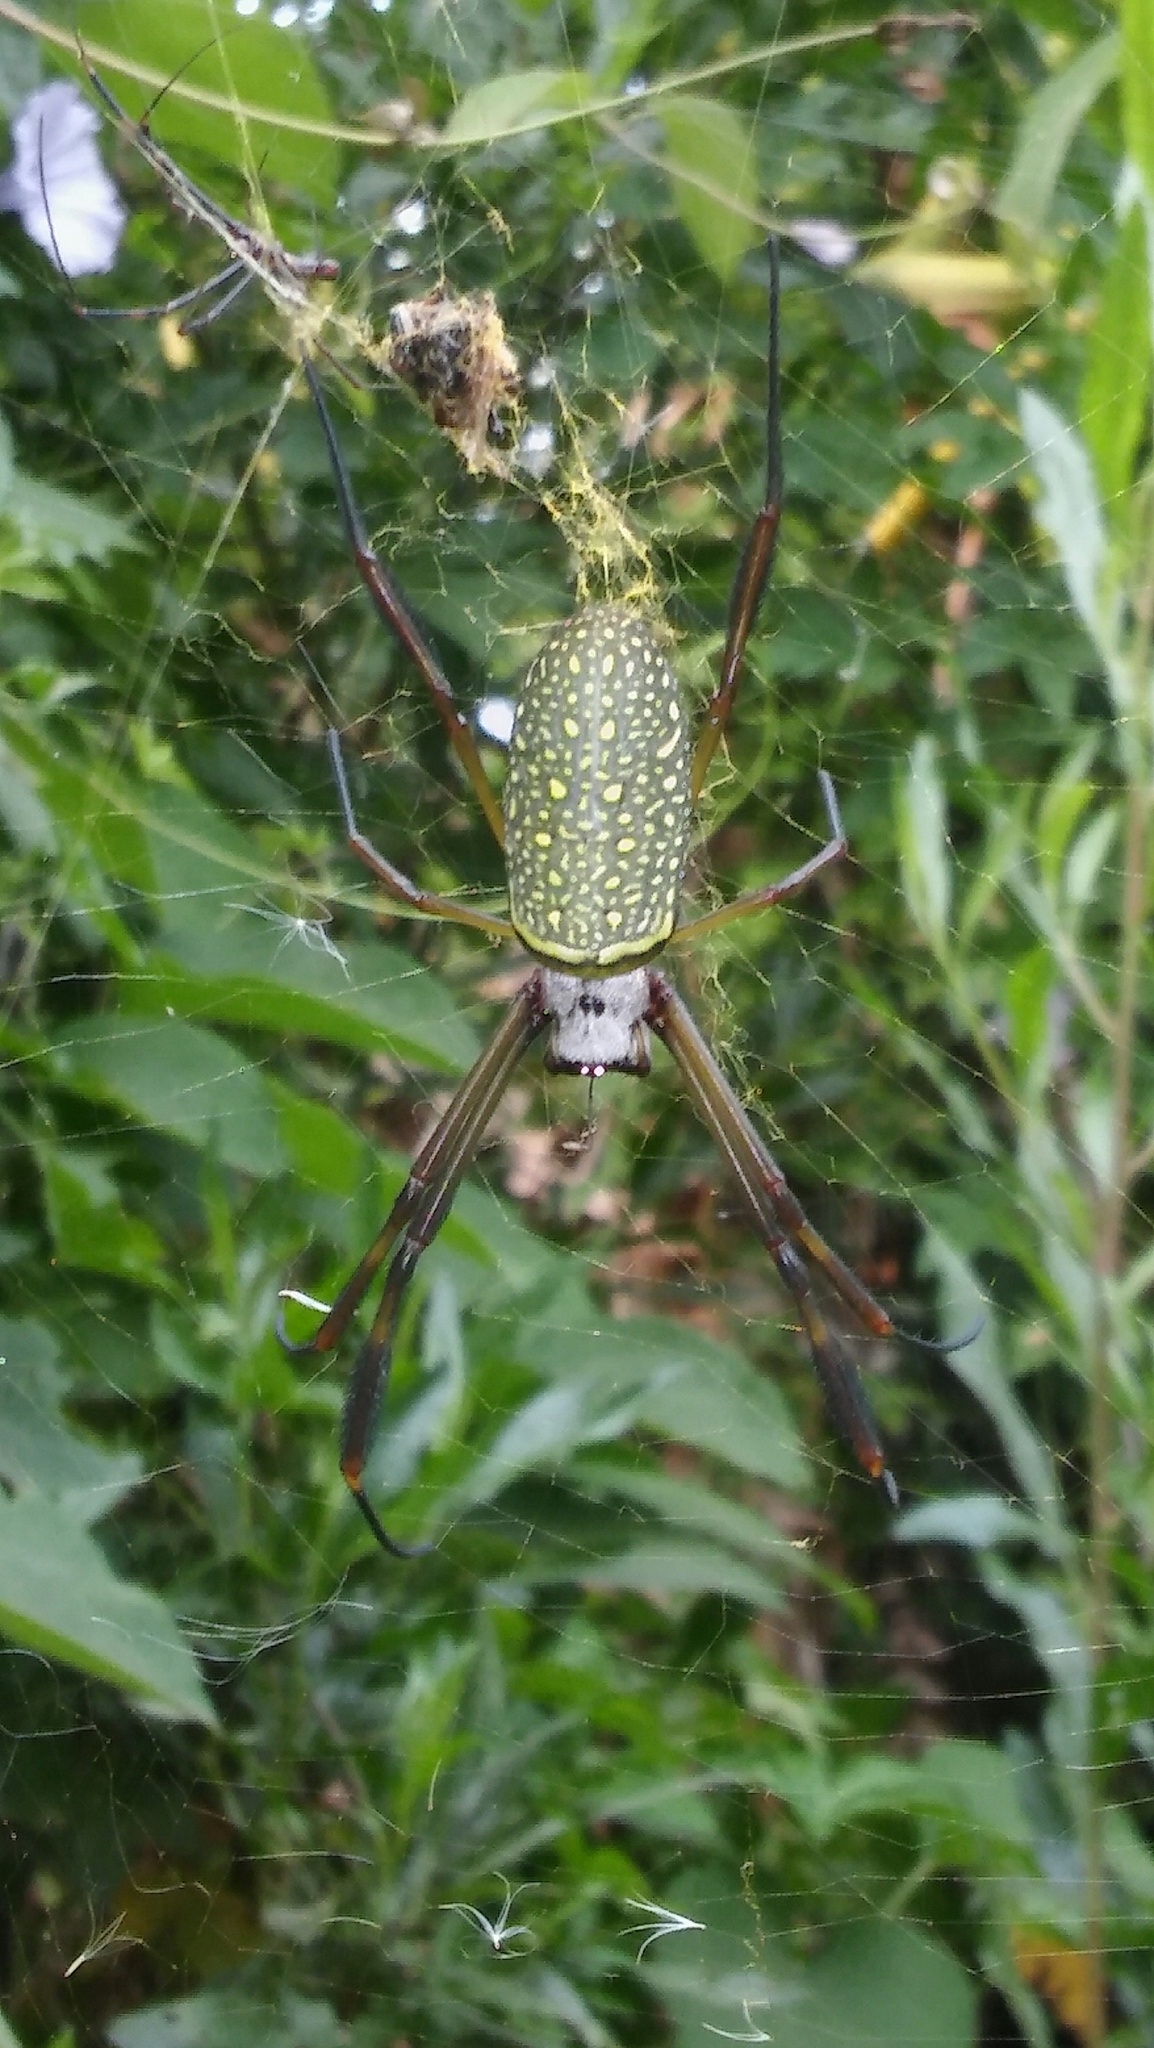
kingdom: Animalia
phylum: Arthropoda
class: Arachnida
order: Araneae
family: Araneidae
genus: Trichonephila
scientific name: Trichonephila clavipes
